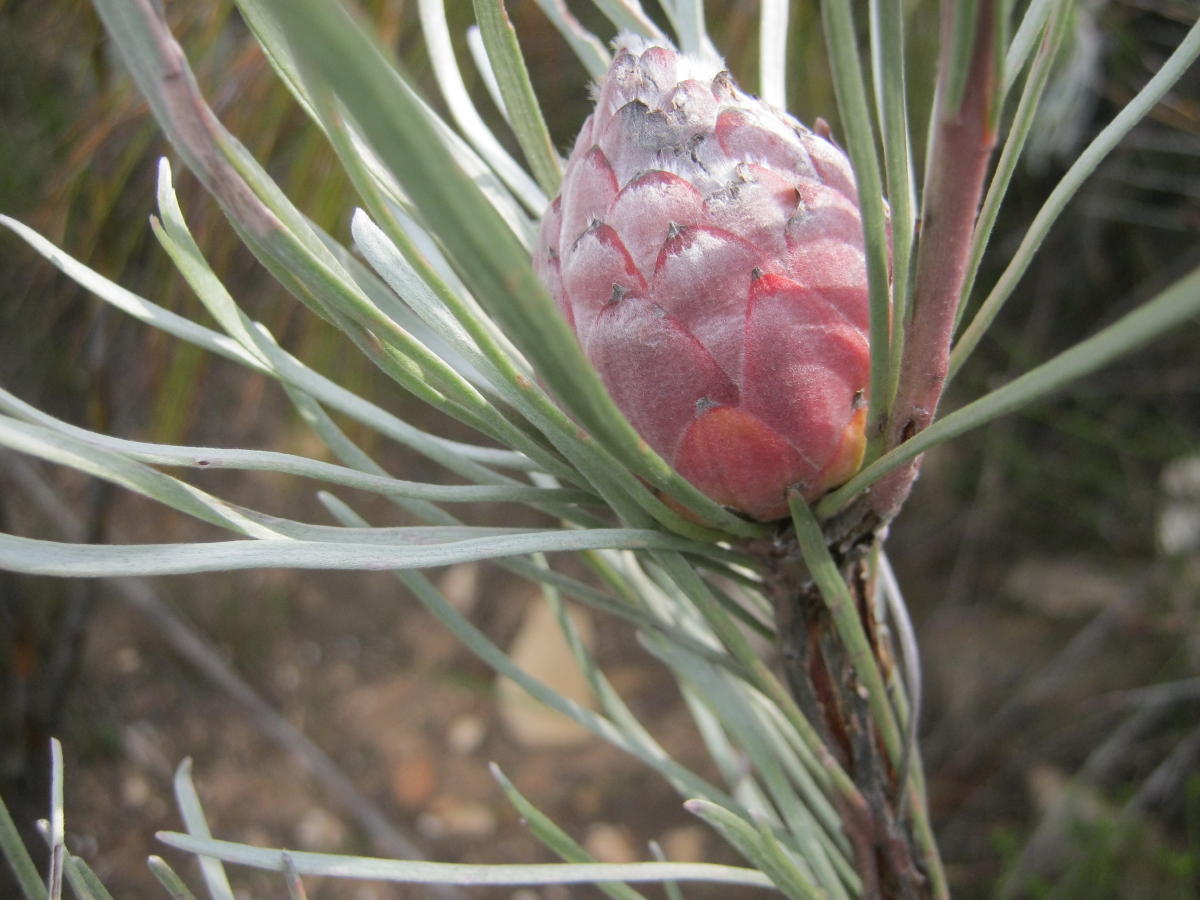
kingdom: Plantae
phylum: Tracheophyta
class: Magnoliopsida
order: Proteales
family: Proteaceae
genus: Leucadendron
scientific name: Leucadendron album
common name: Linear-leaf conebush
